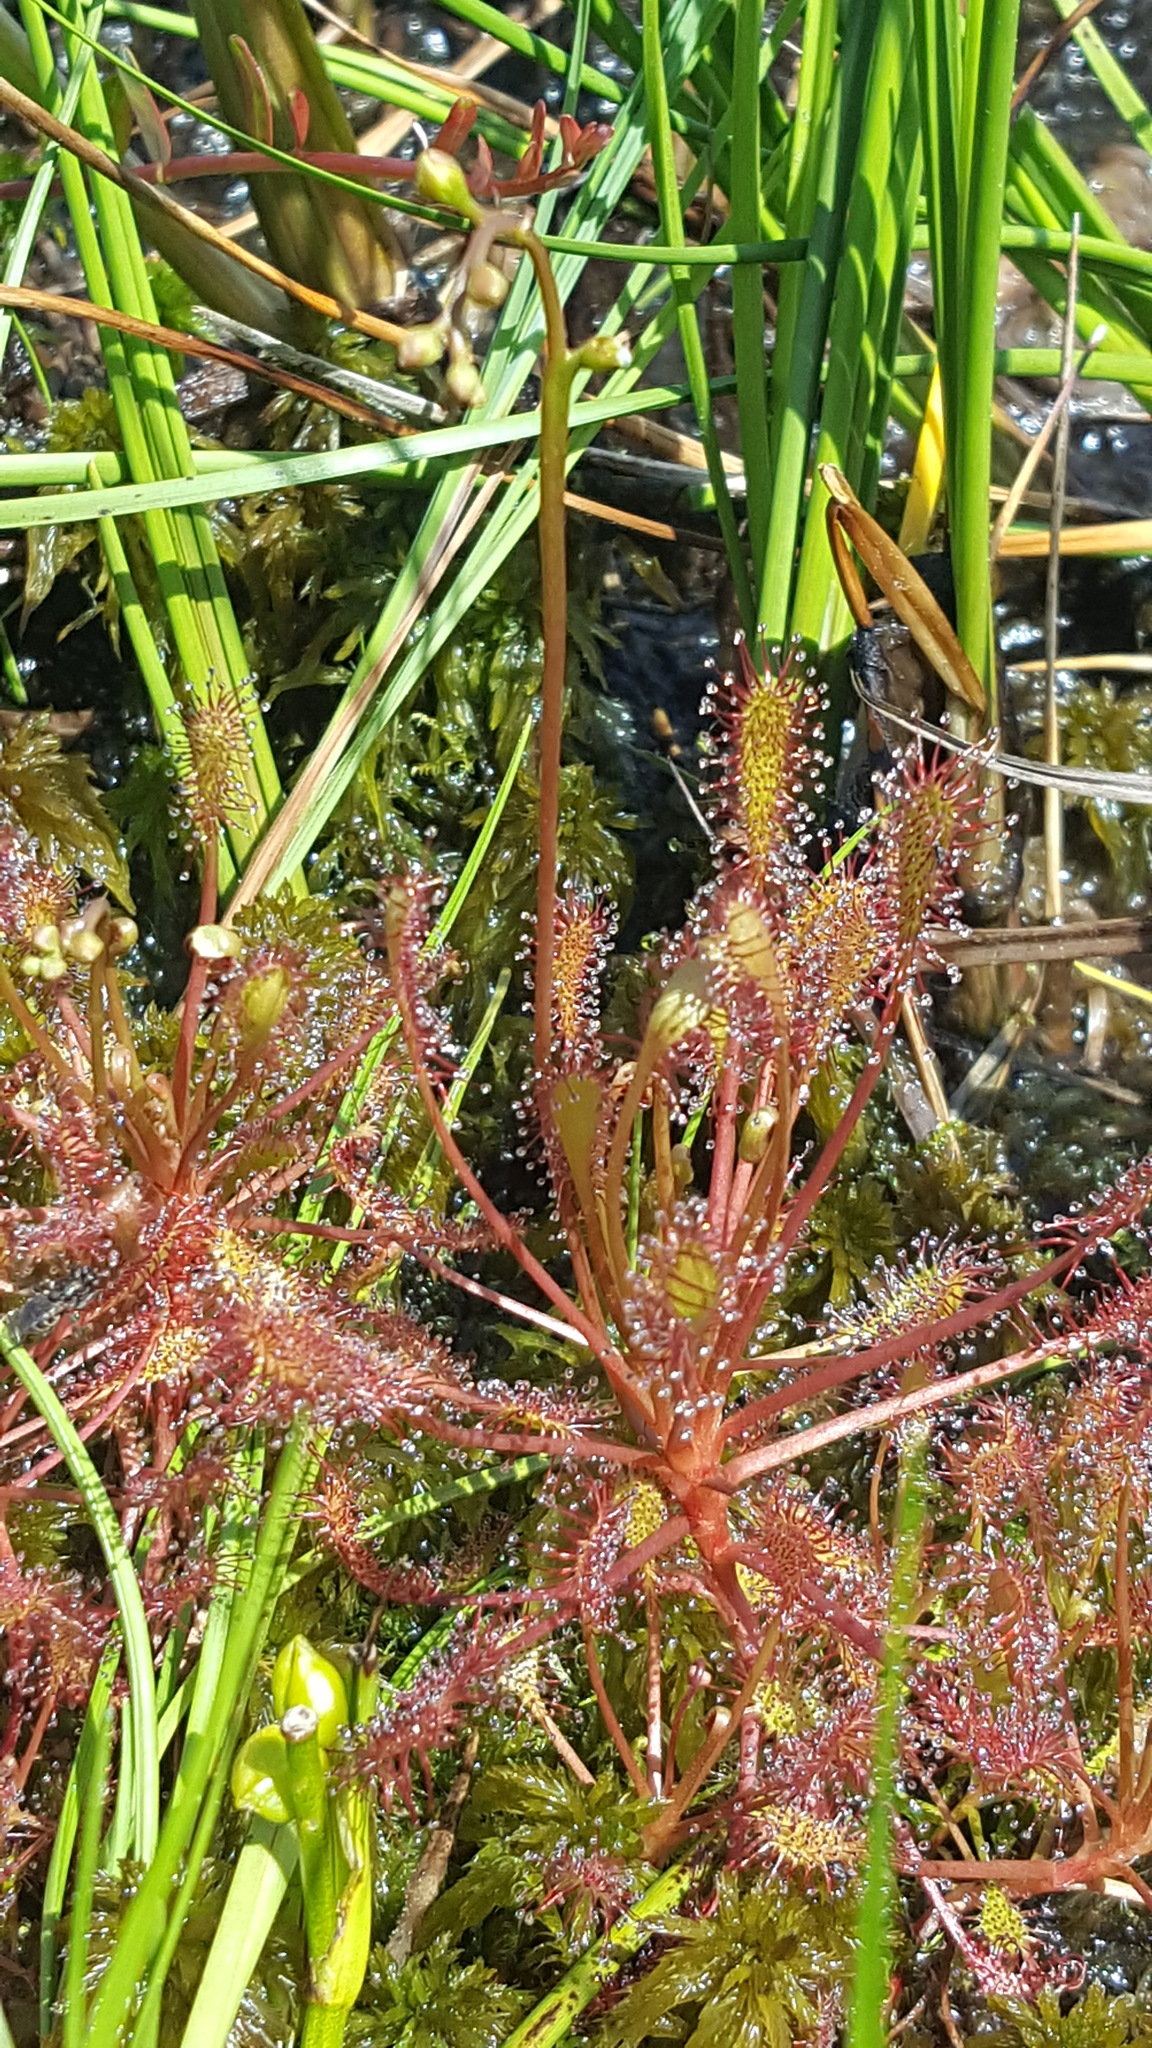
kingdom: Plantae
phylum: Tracheophyta
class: Magnoliopsida
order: Caryophyllales
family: Droseraceae
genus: Drosera
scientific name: Drosera intermedia
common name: Oblong-leaved sundew
